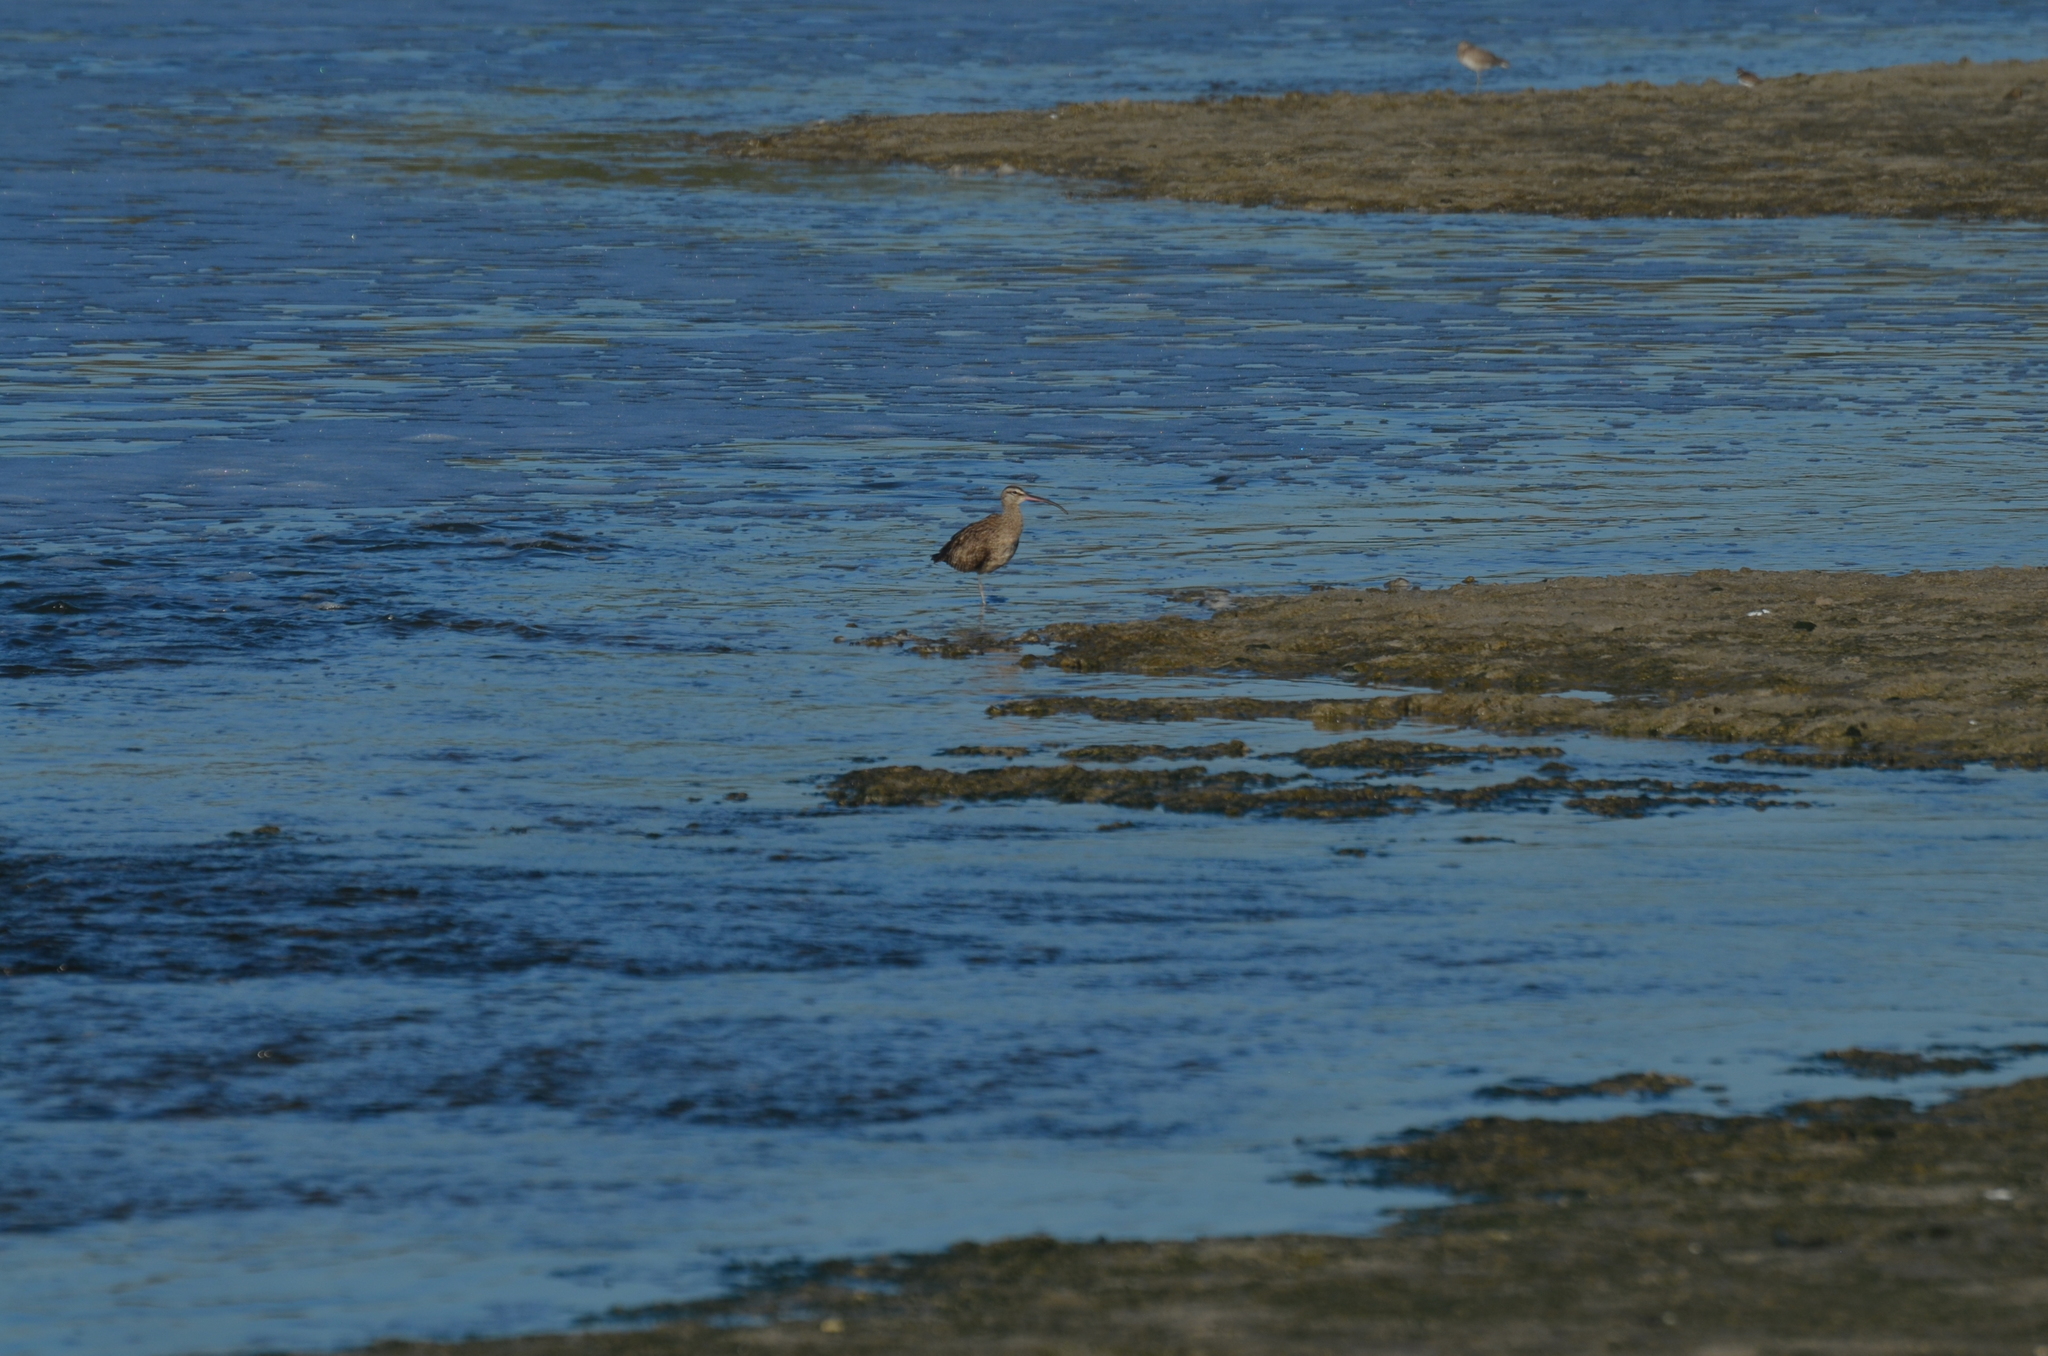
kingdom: Animalia
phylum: Chordata
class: Aves
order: Charadriiformes
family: Scolopacidae
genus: Numenius
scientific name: Numenius phaeopus
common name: Whimbrel
